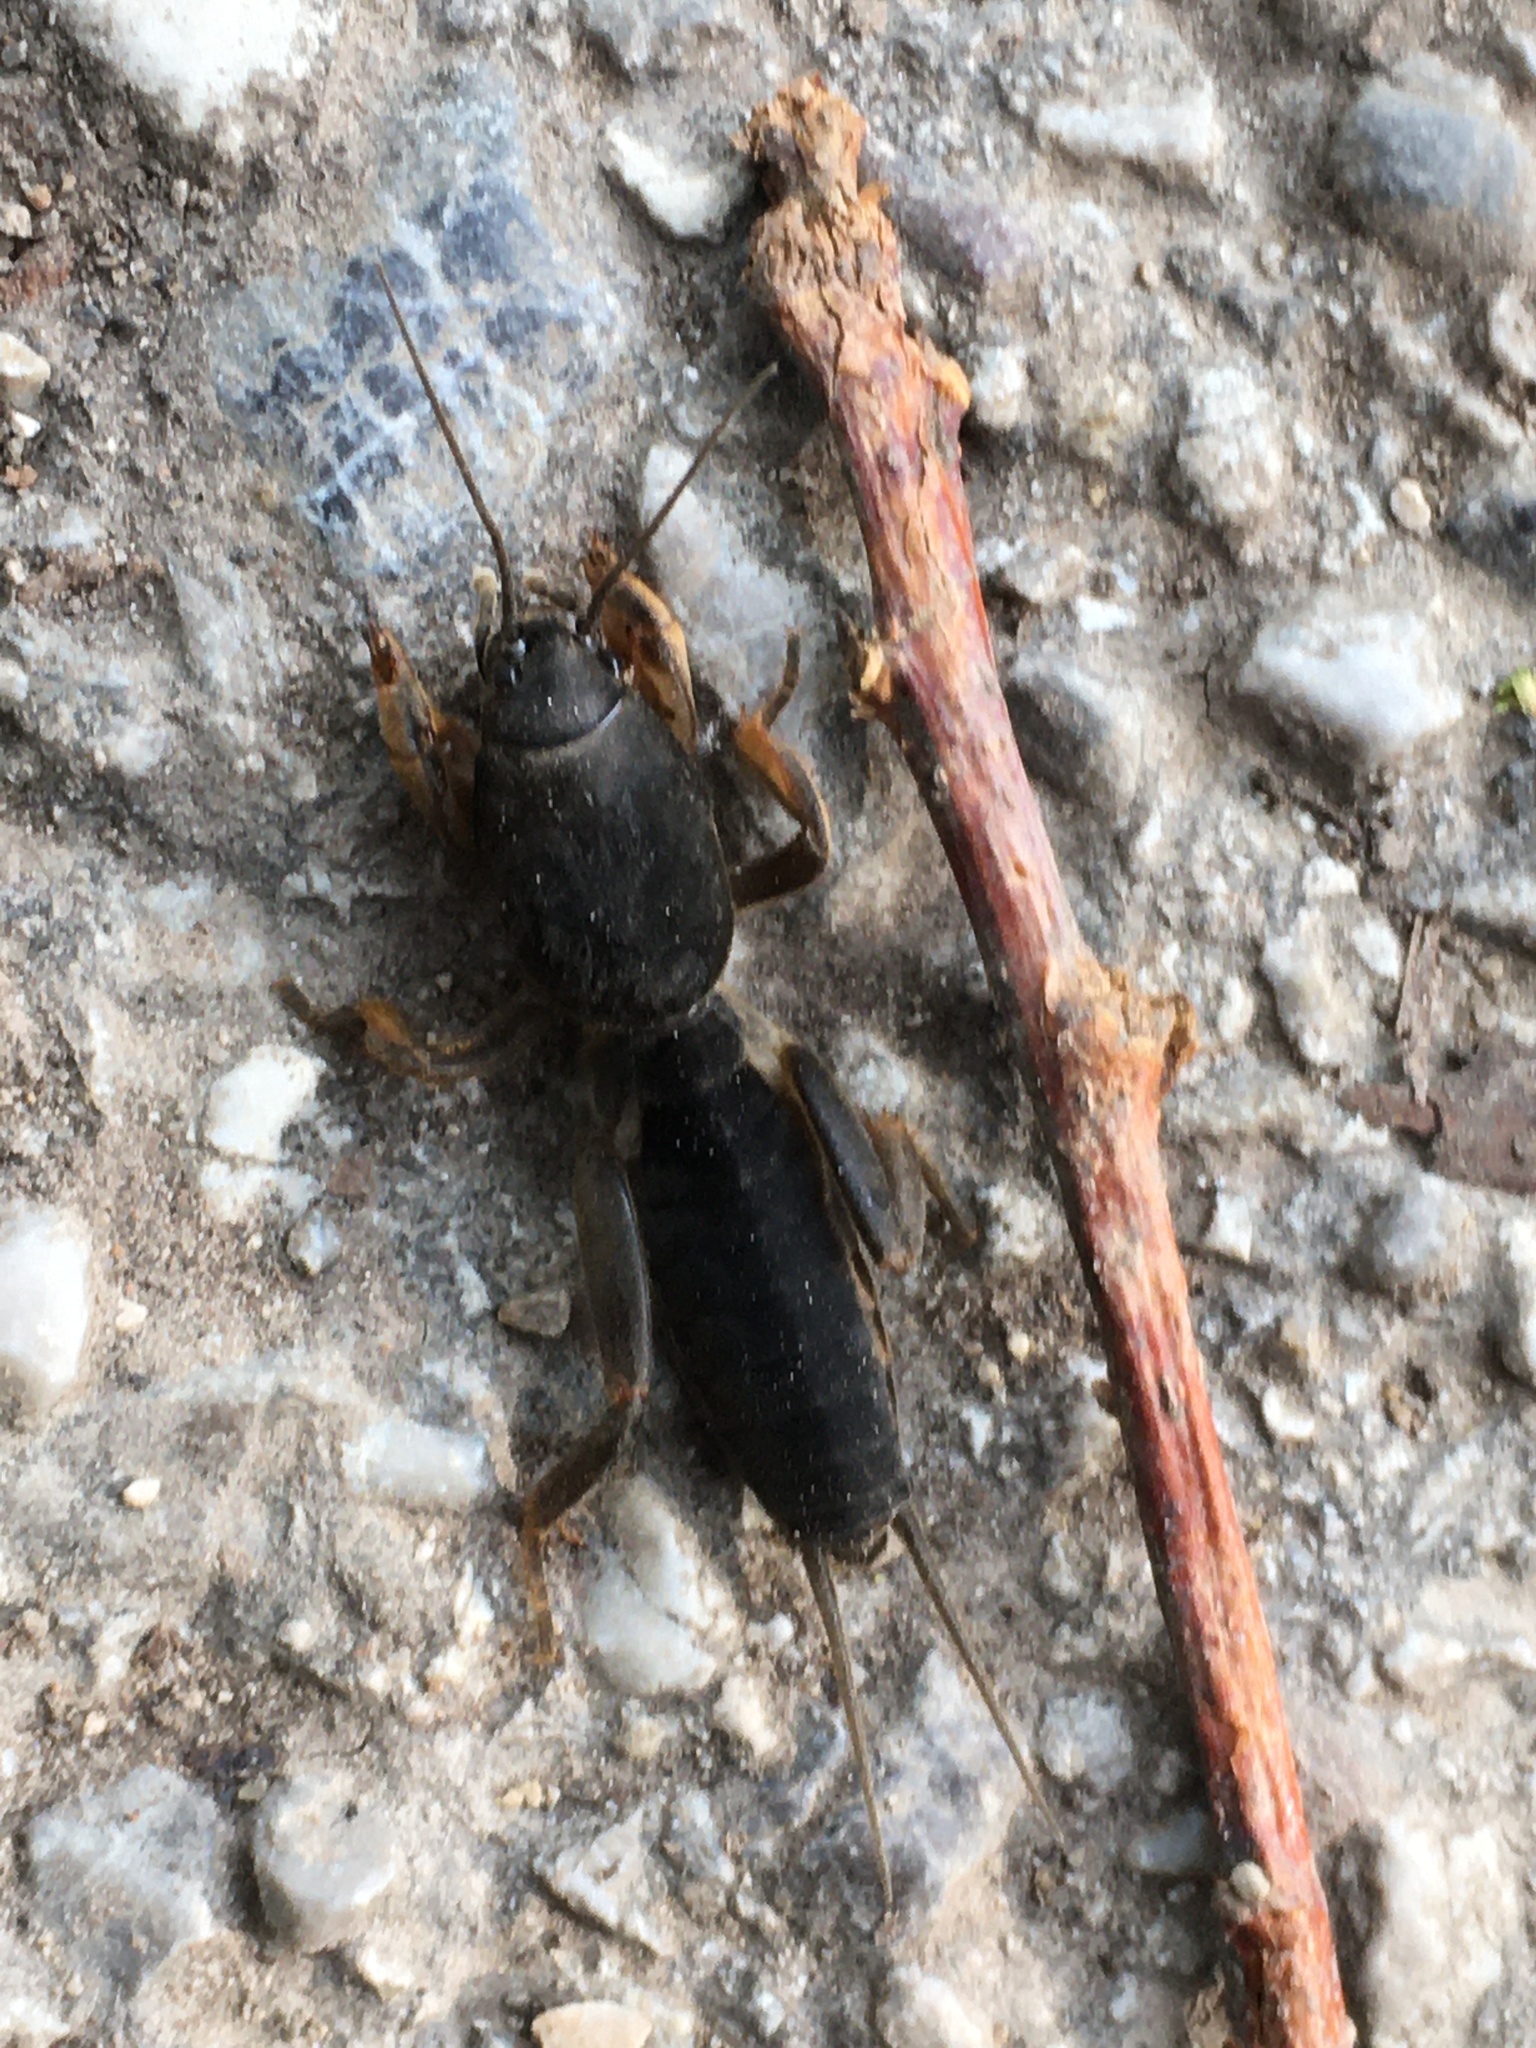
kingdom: Animalia
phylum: Arthropoda
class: Insecta
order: Orthoptera
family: Gryllotalpidae
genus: Gryllotalpa
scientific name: Gryllotalpa gryllotalpa
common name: European mole cricket
